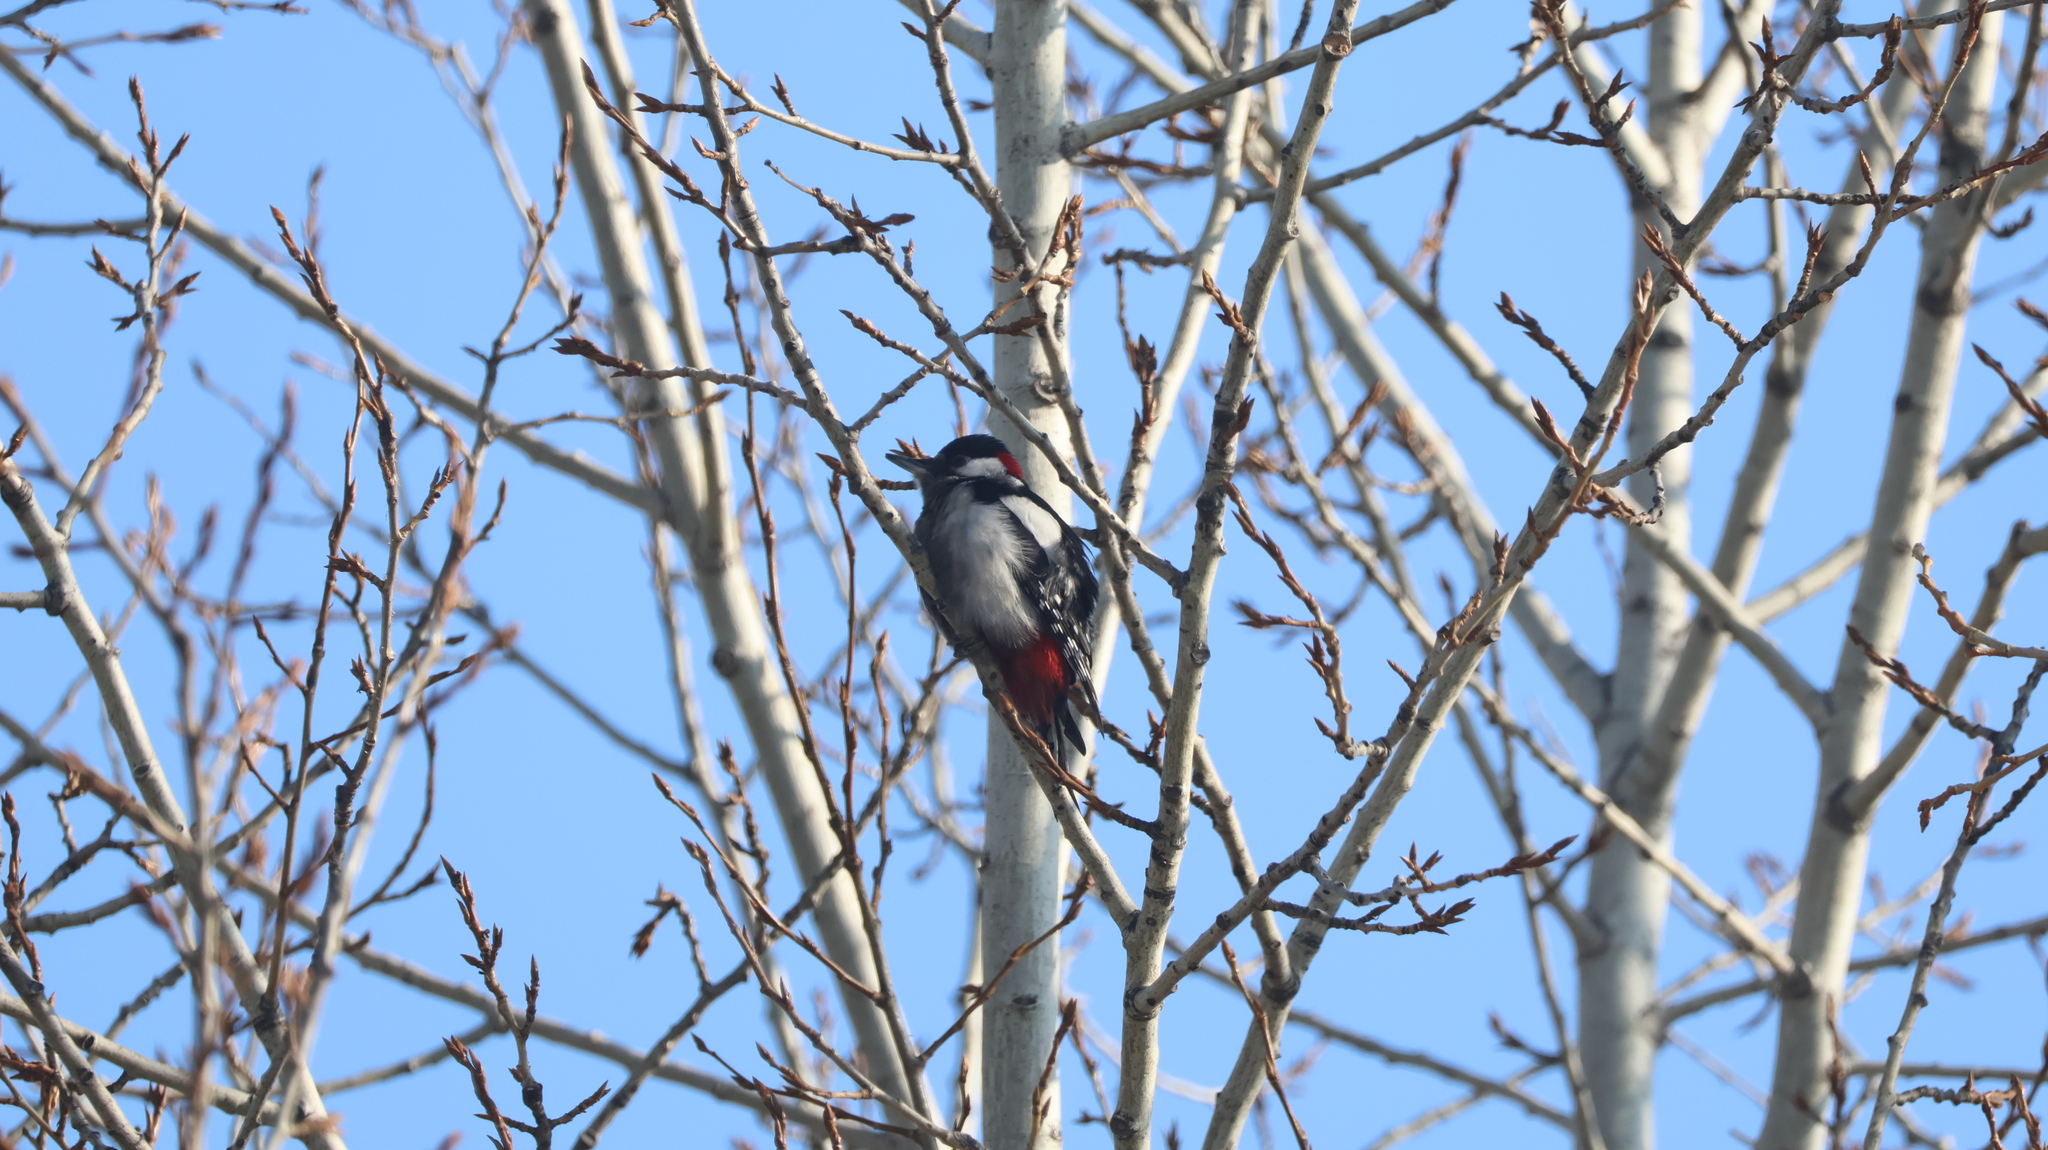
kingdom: Animalia
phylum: Chordata
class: Aves
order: Piciformes
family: Picidae
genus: Dendrocopos
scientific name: Dendrocopos major
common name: Great spotted woodpecker
